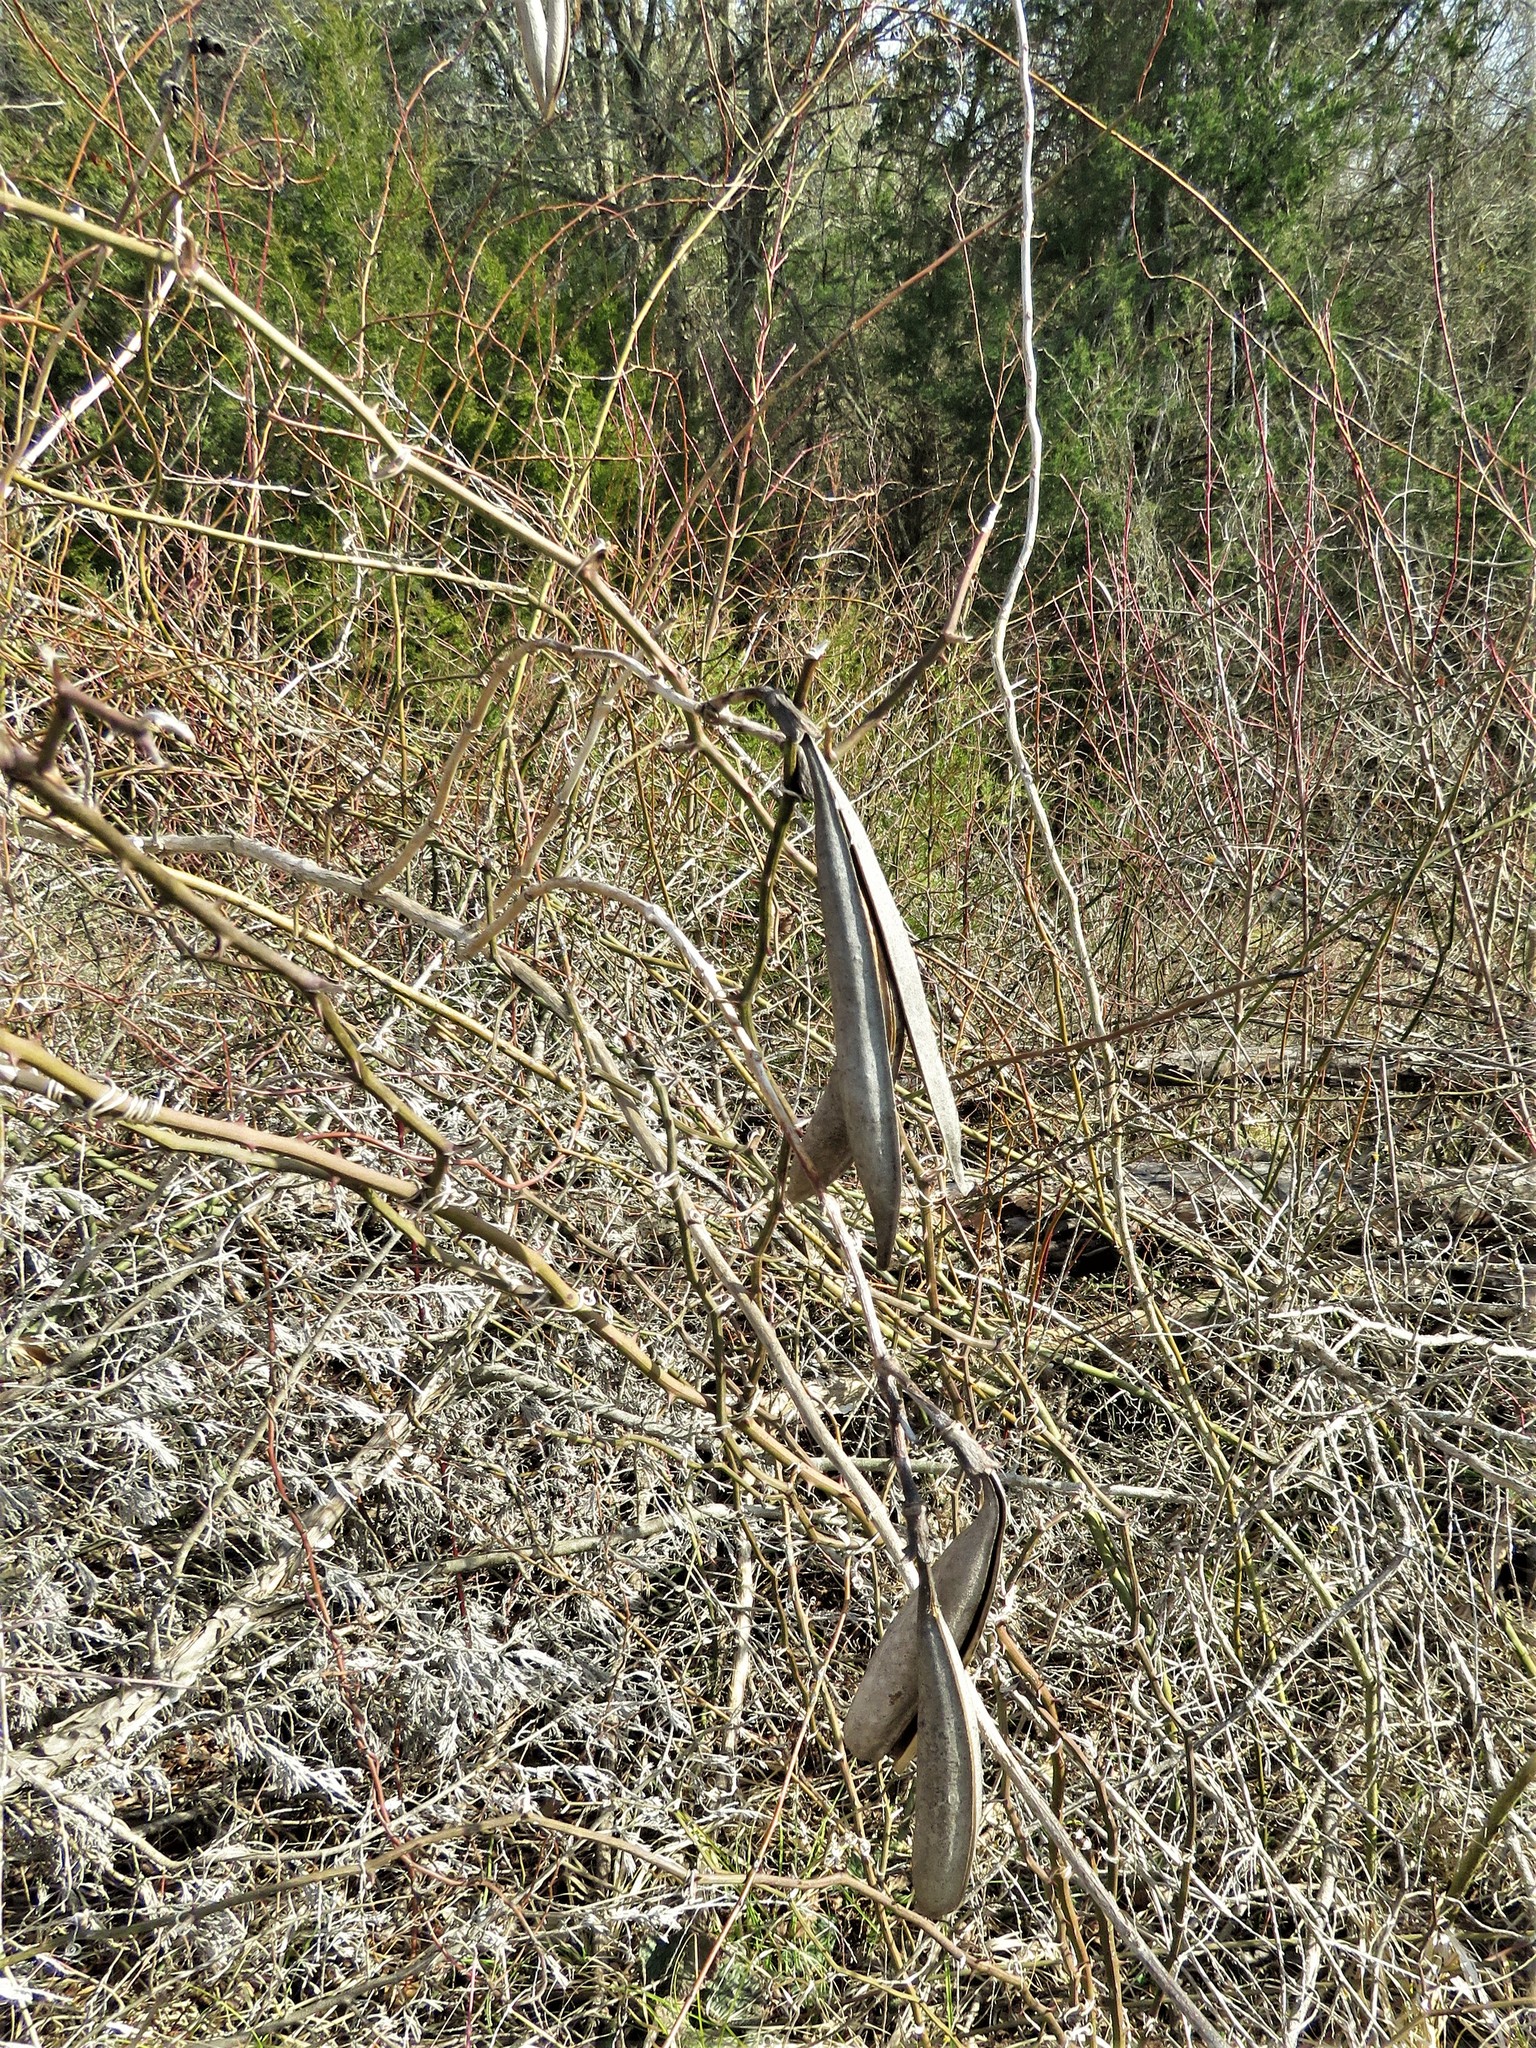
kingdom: Plantae
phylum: Tracheophyta
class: Magnoliopsida
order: Lamiales
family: Bignoniaceae
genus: Campsis
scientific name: Campsis radicans
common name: Trumpet-creeper
